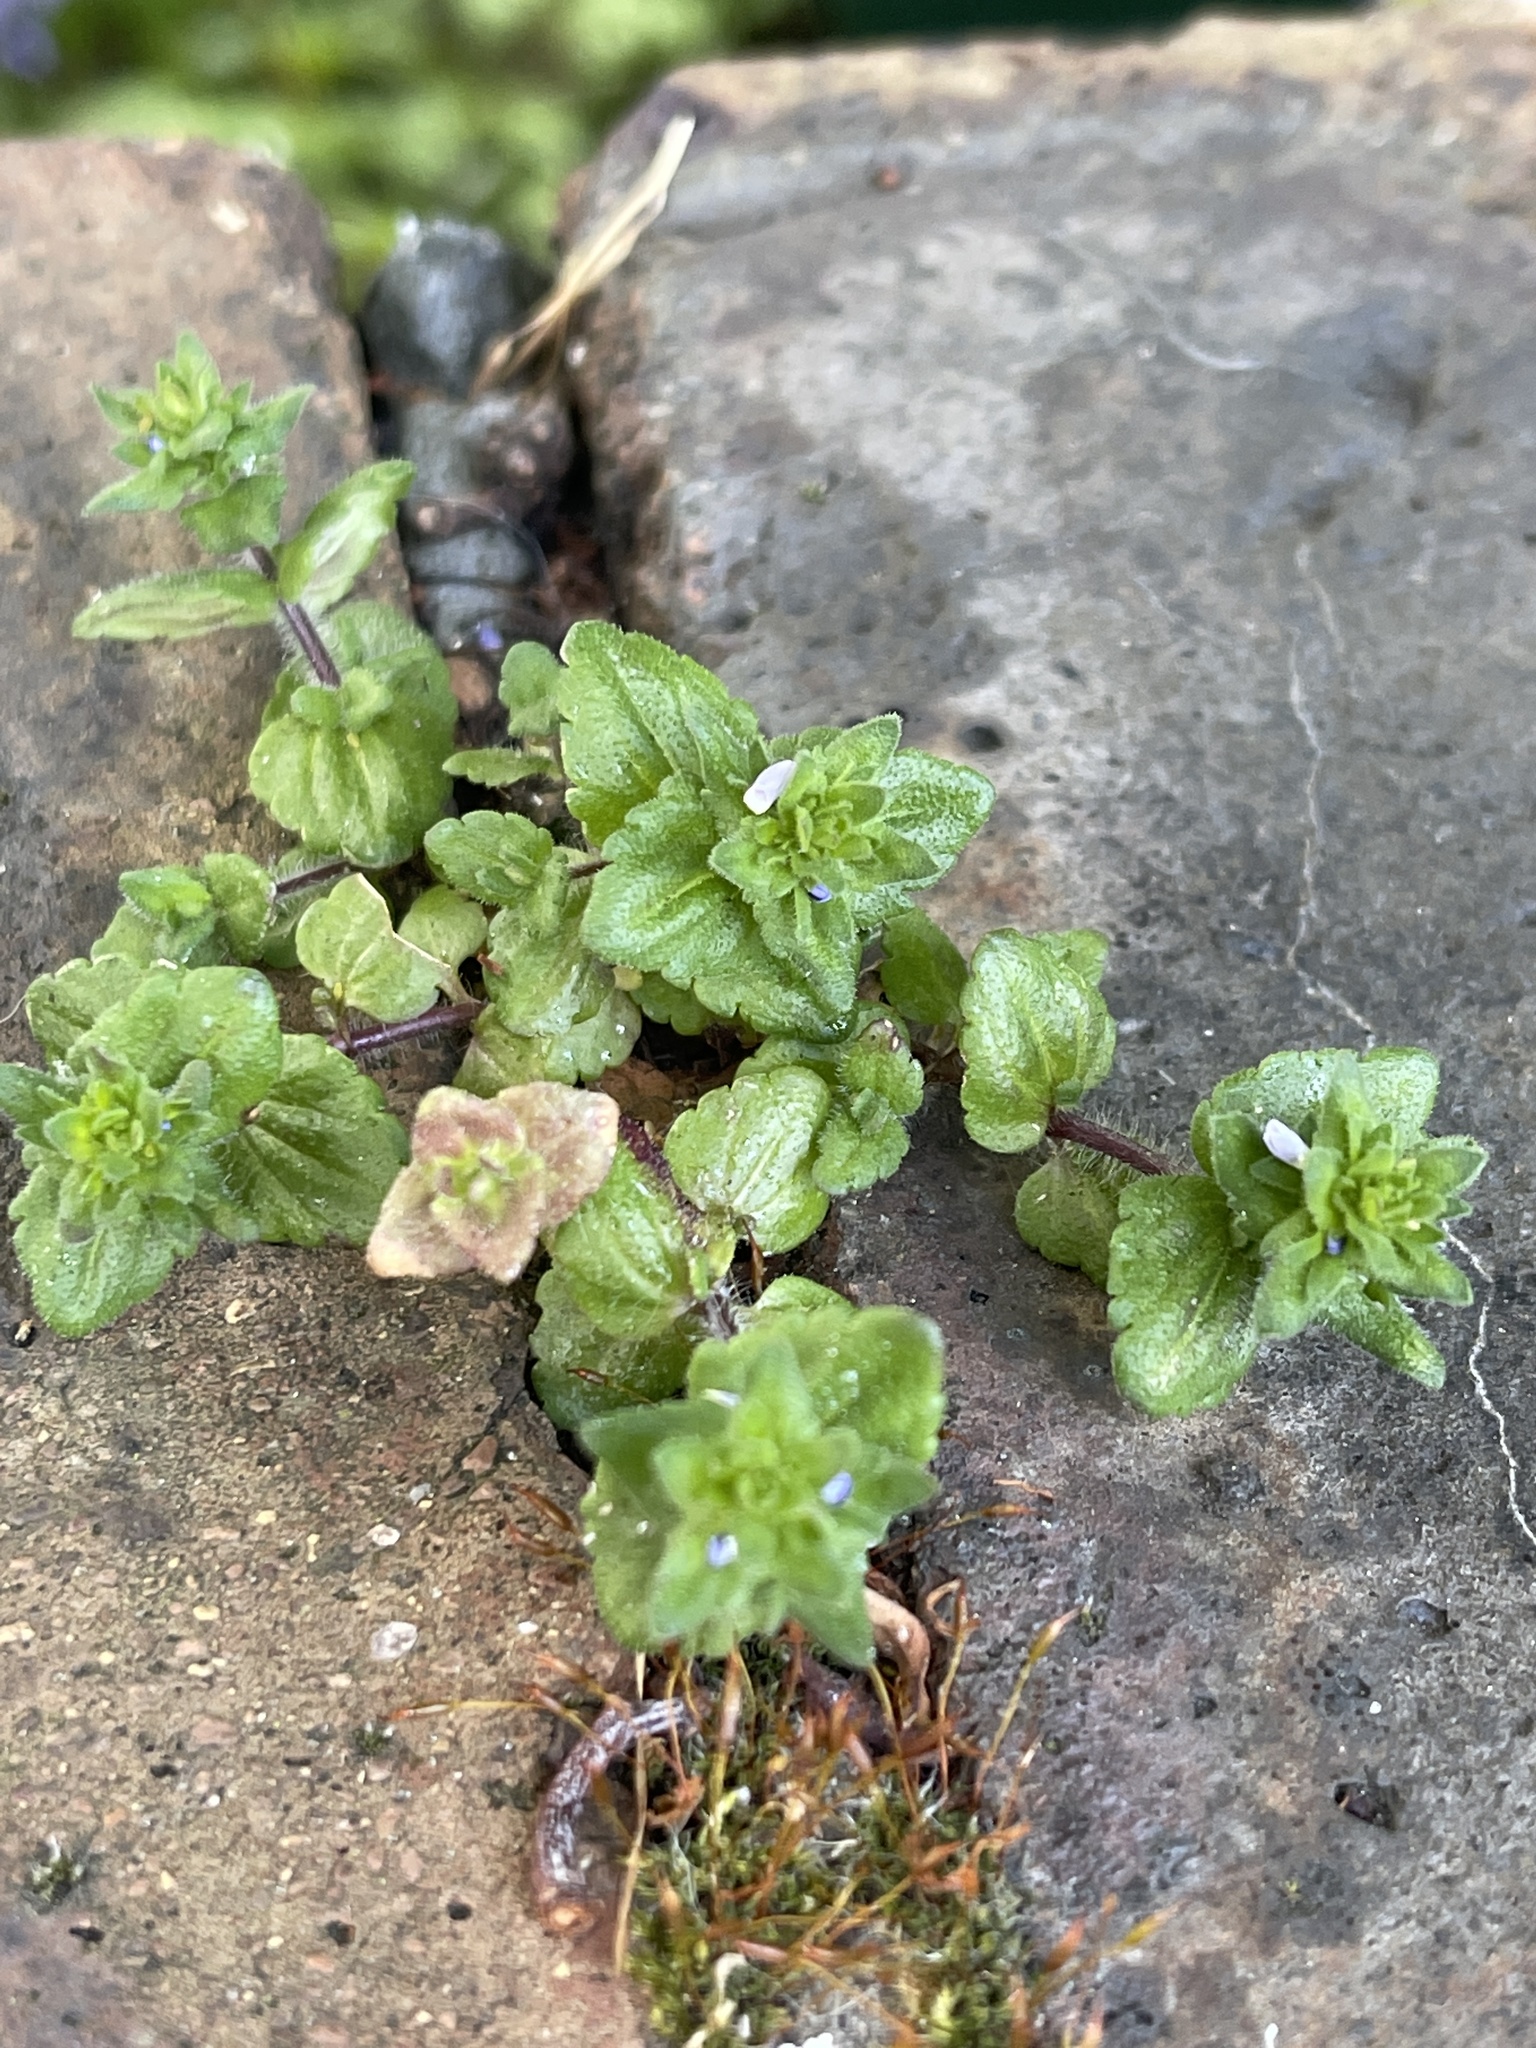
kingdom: Plantae
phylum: Tracheophyta
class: Magnoliopsida
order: Lamiales
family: Plantaginaceae
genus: Veronica
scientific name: Veronica arvensis
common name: Corn speedwell
